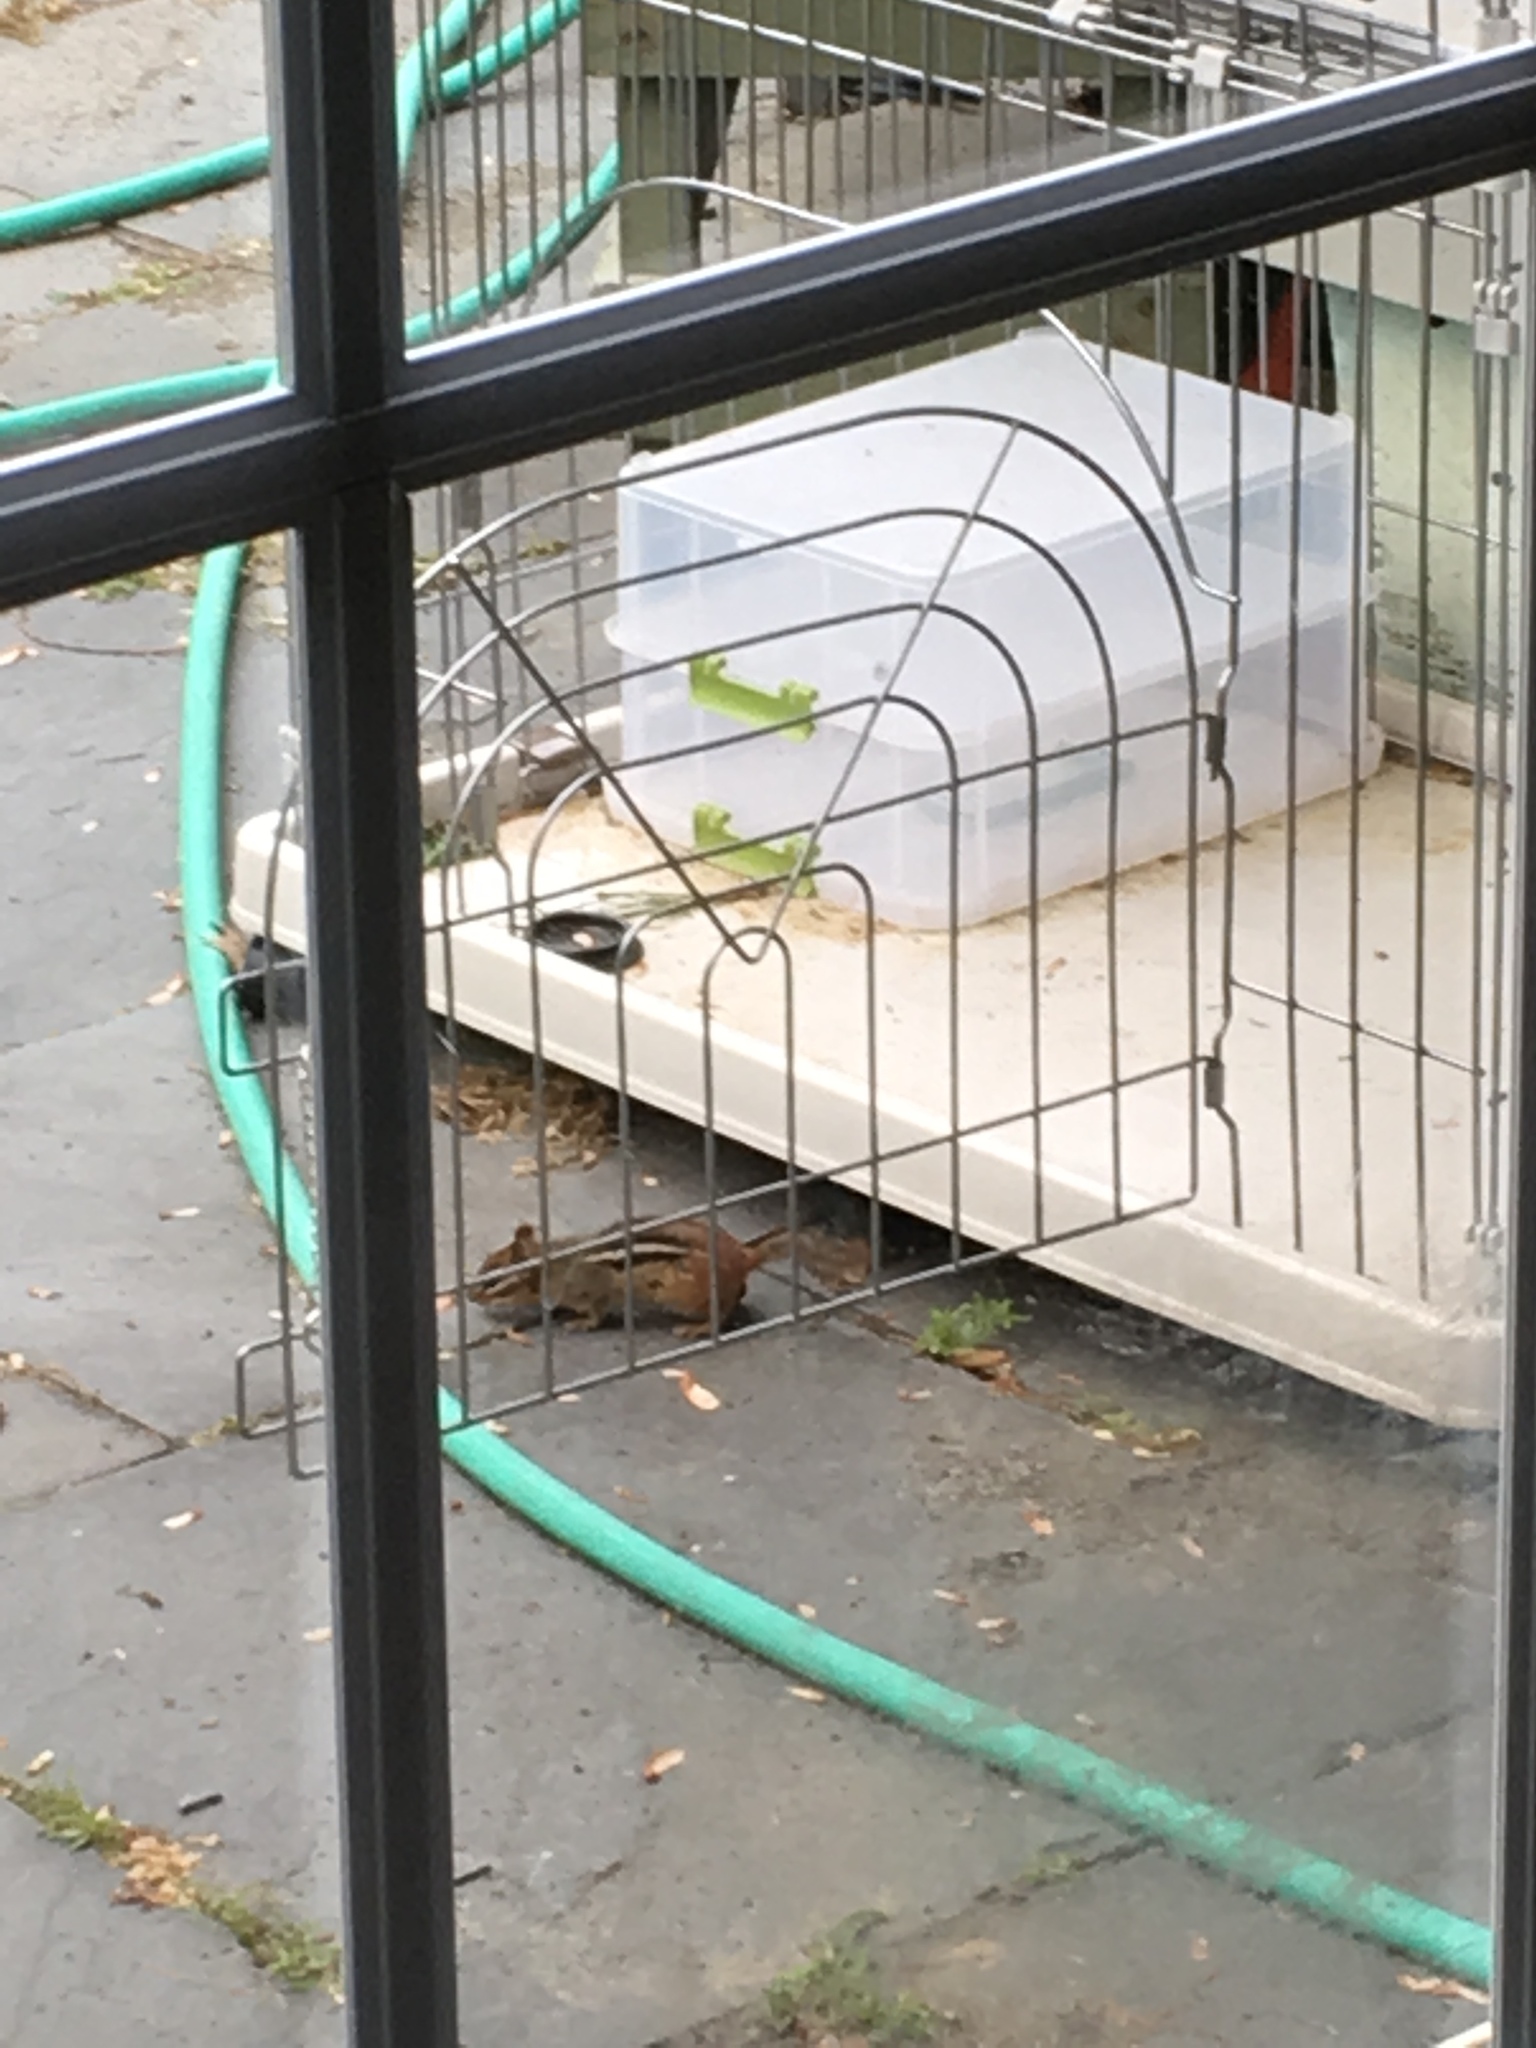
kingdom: Animalia
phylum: Chordata
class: Mammalia
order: Rodentia
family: Sciuridae
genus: Tamias
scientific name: Tamias striatus
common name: Eastern chipmunk
